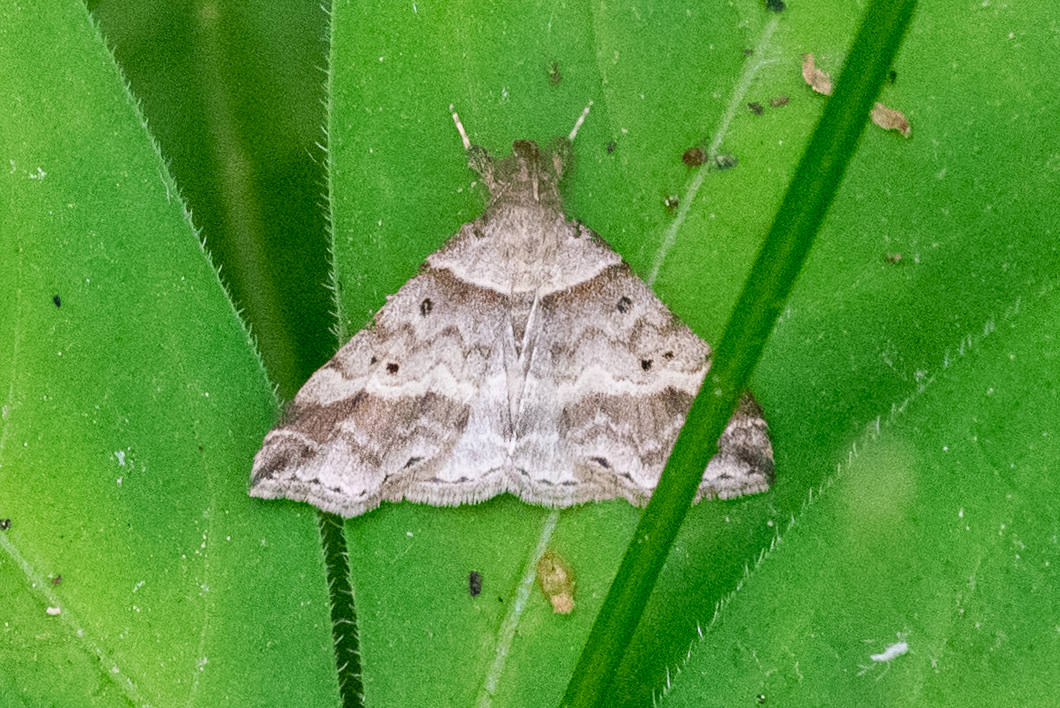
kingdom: Animalia
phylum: Arthropoda
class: Insecta
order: Lepidoptera
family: Erebidae
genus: Phaeolita
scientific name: Phaeolita pyramusalis
